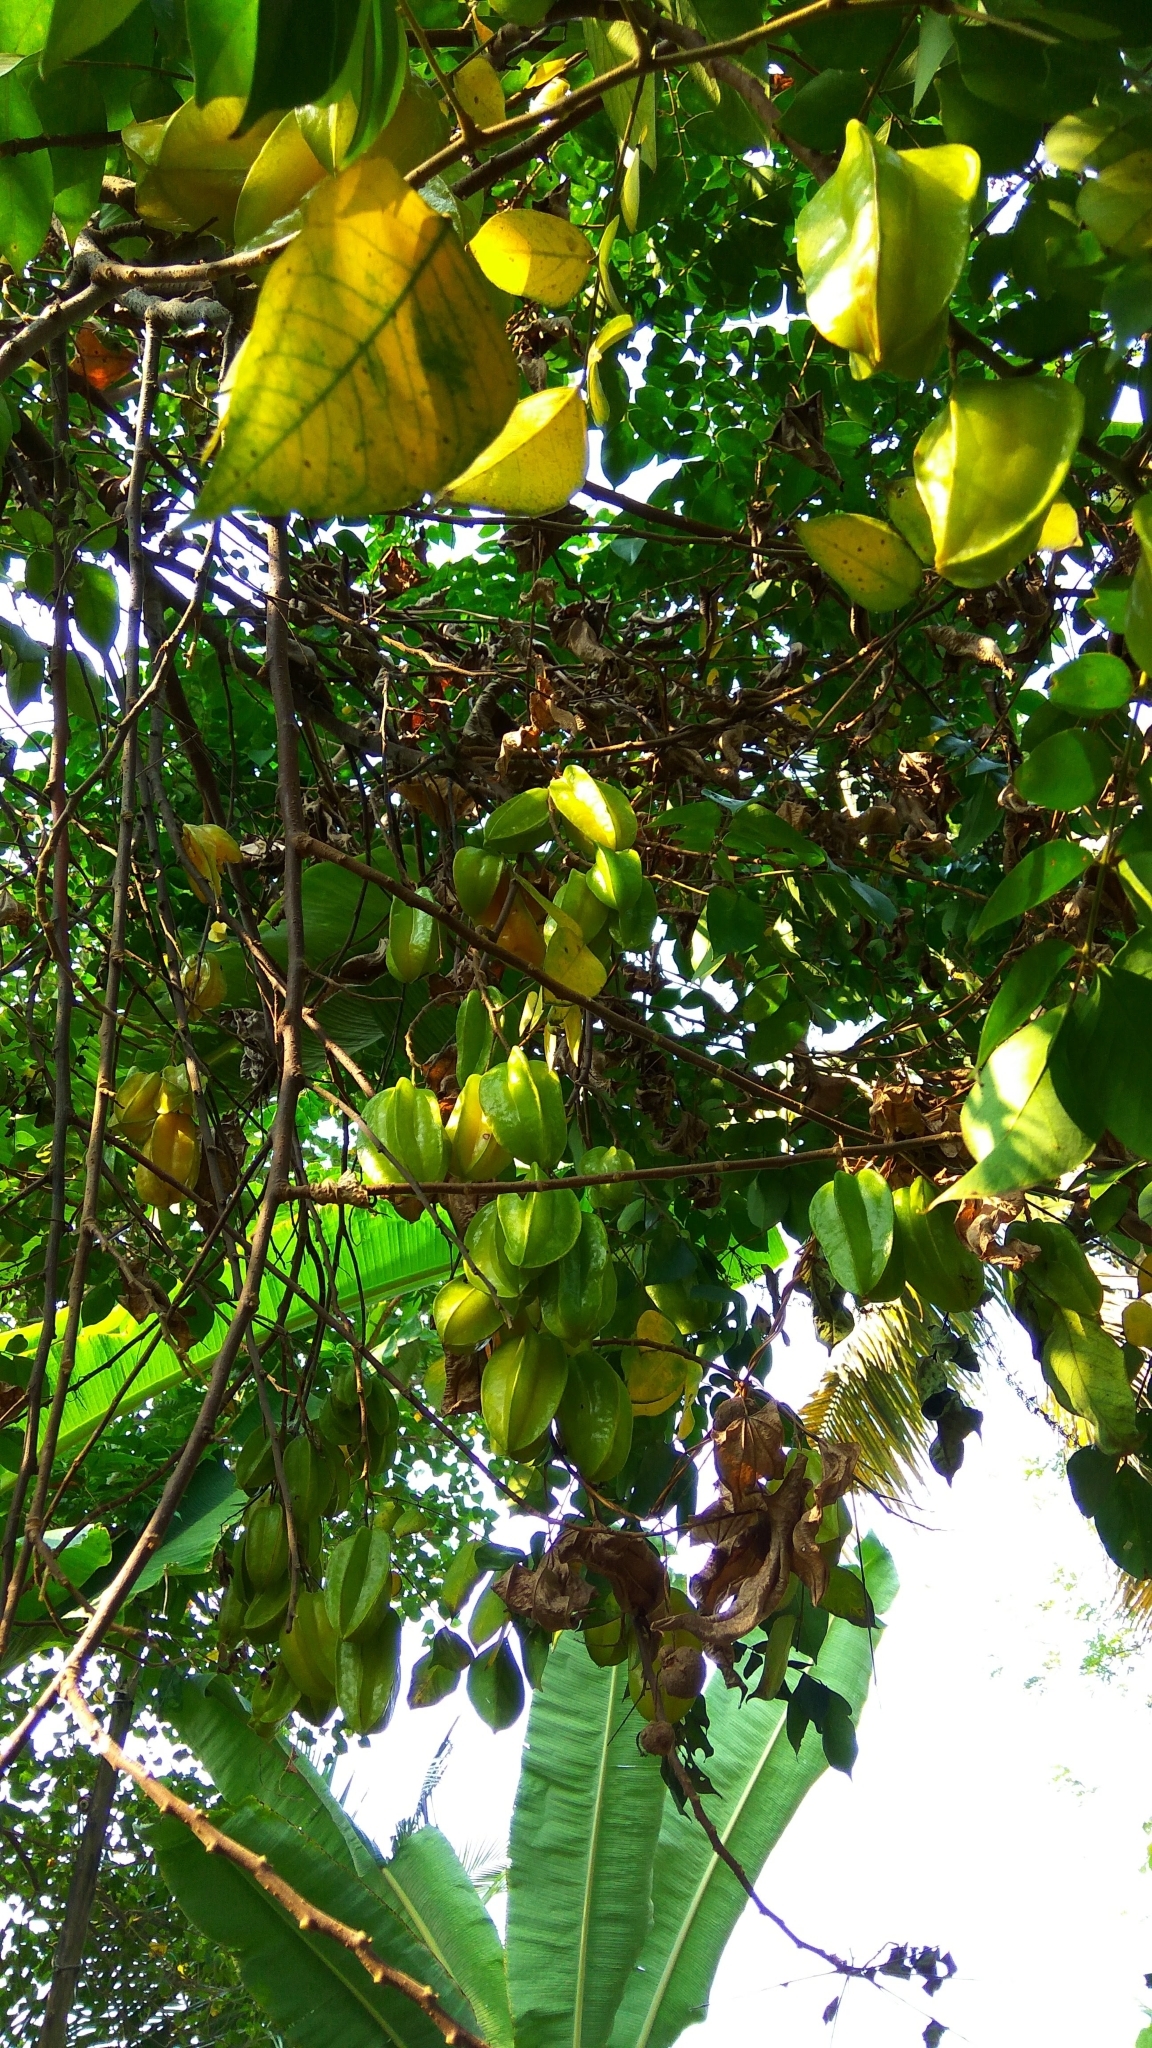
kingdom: Plantae
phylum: Tracheophyta
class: Magnoliopsida
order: Oxalidales
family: Oxalidaceae
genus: Averrhoa
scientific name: Averrhoa carambola
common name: Blimbing
